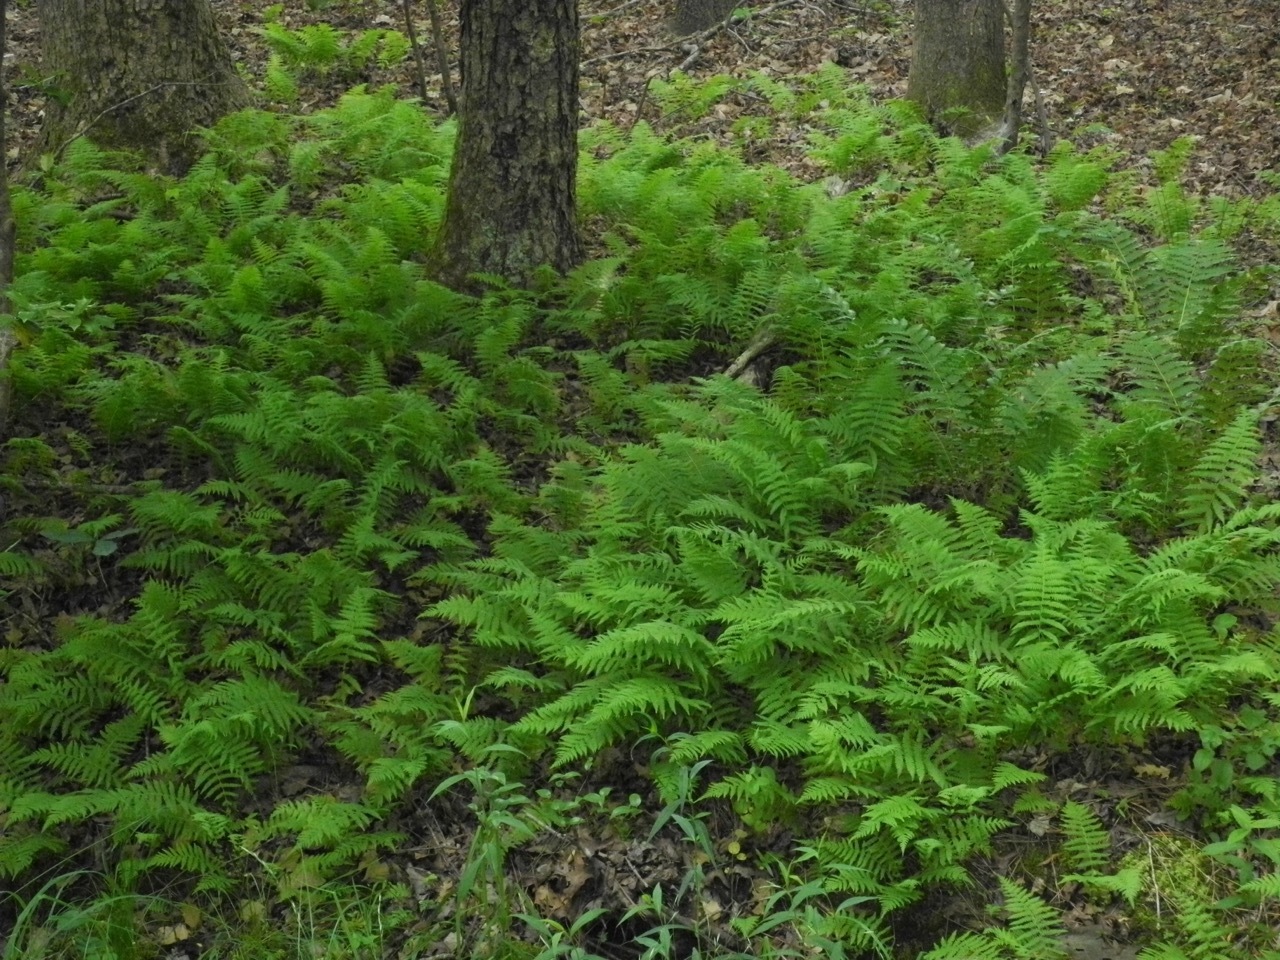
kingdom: Plantae
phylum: Tracheophyta
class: Polypodiopsida
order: Polypodiales
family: Thelypteridaceae
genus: Amauropelta
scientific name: Amauropelta noveboracensis
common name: New york fern
